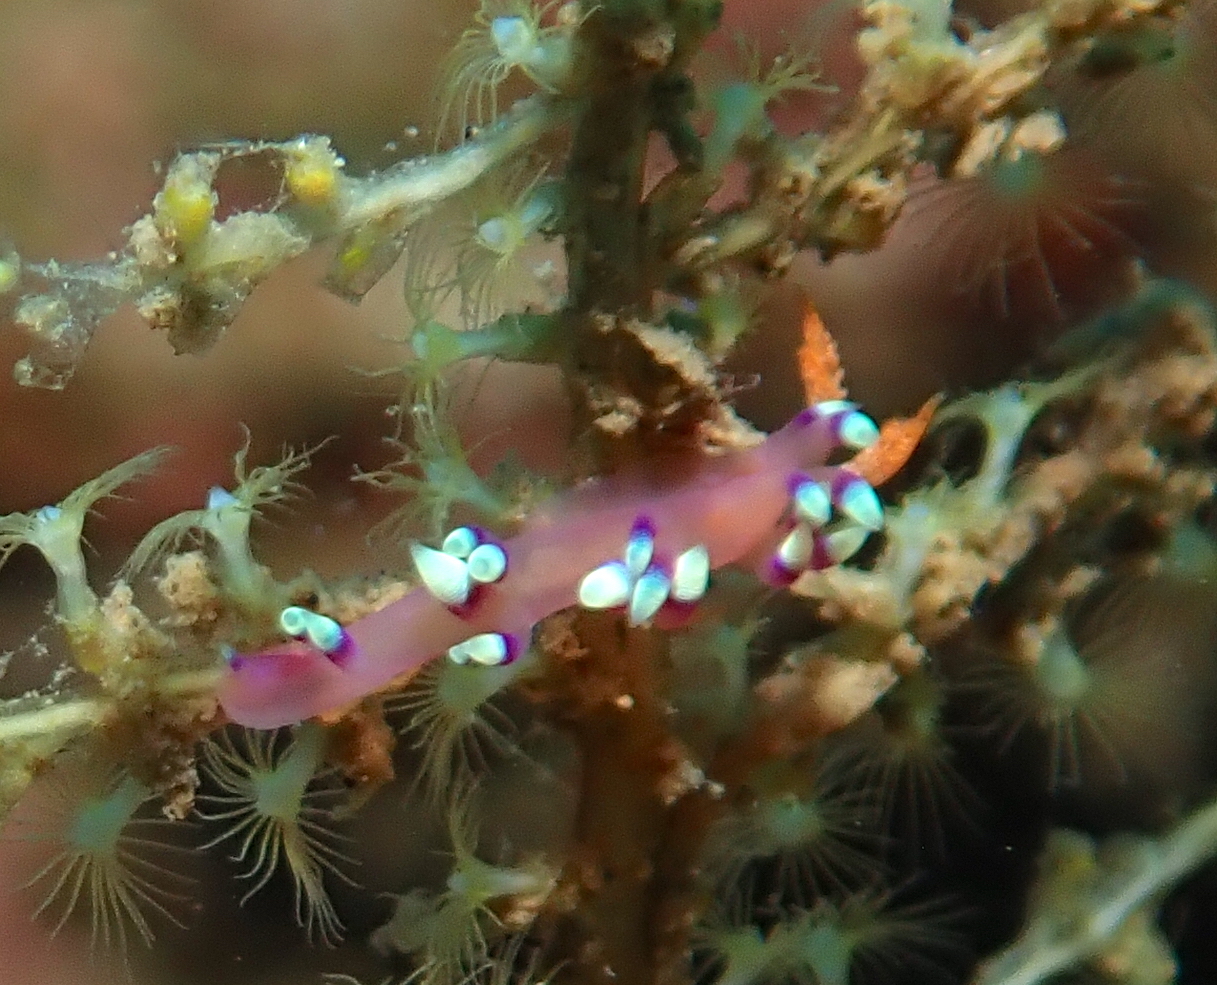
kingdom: Animalia
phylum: Mollusca
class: Gastropoda
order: Nudibranchia
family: Flabellinidae
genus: Coryphellina
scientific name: Coryphellina exoptata
